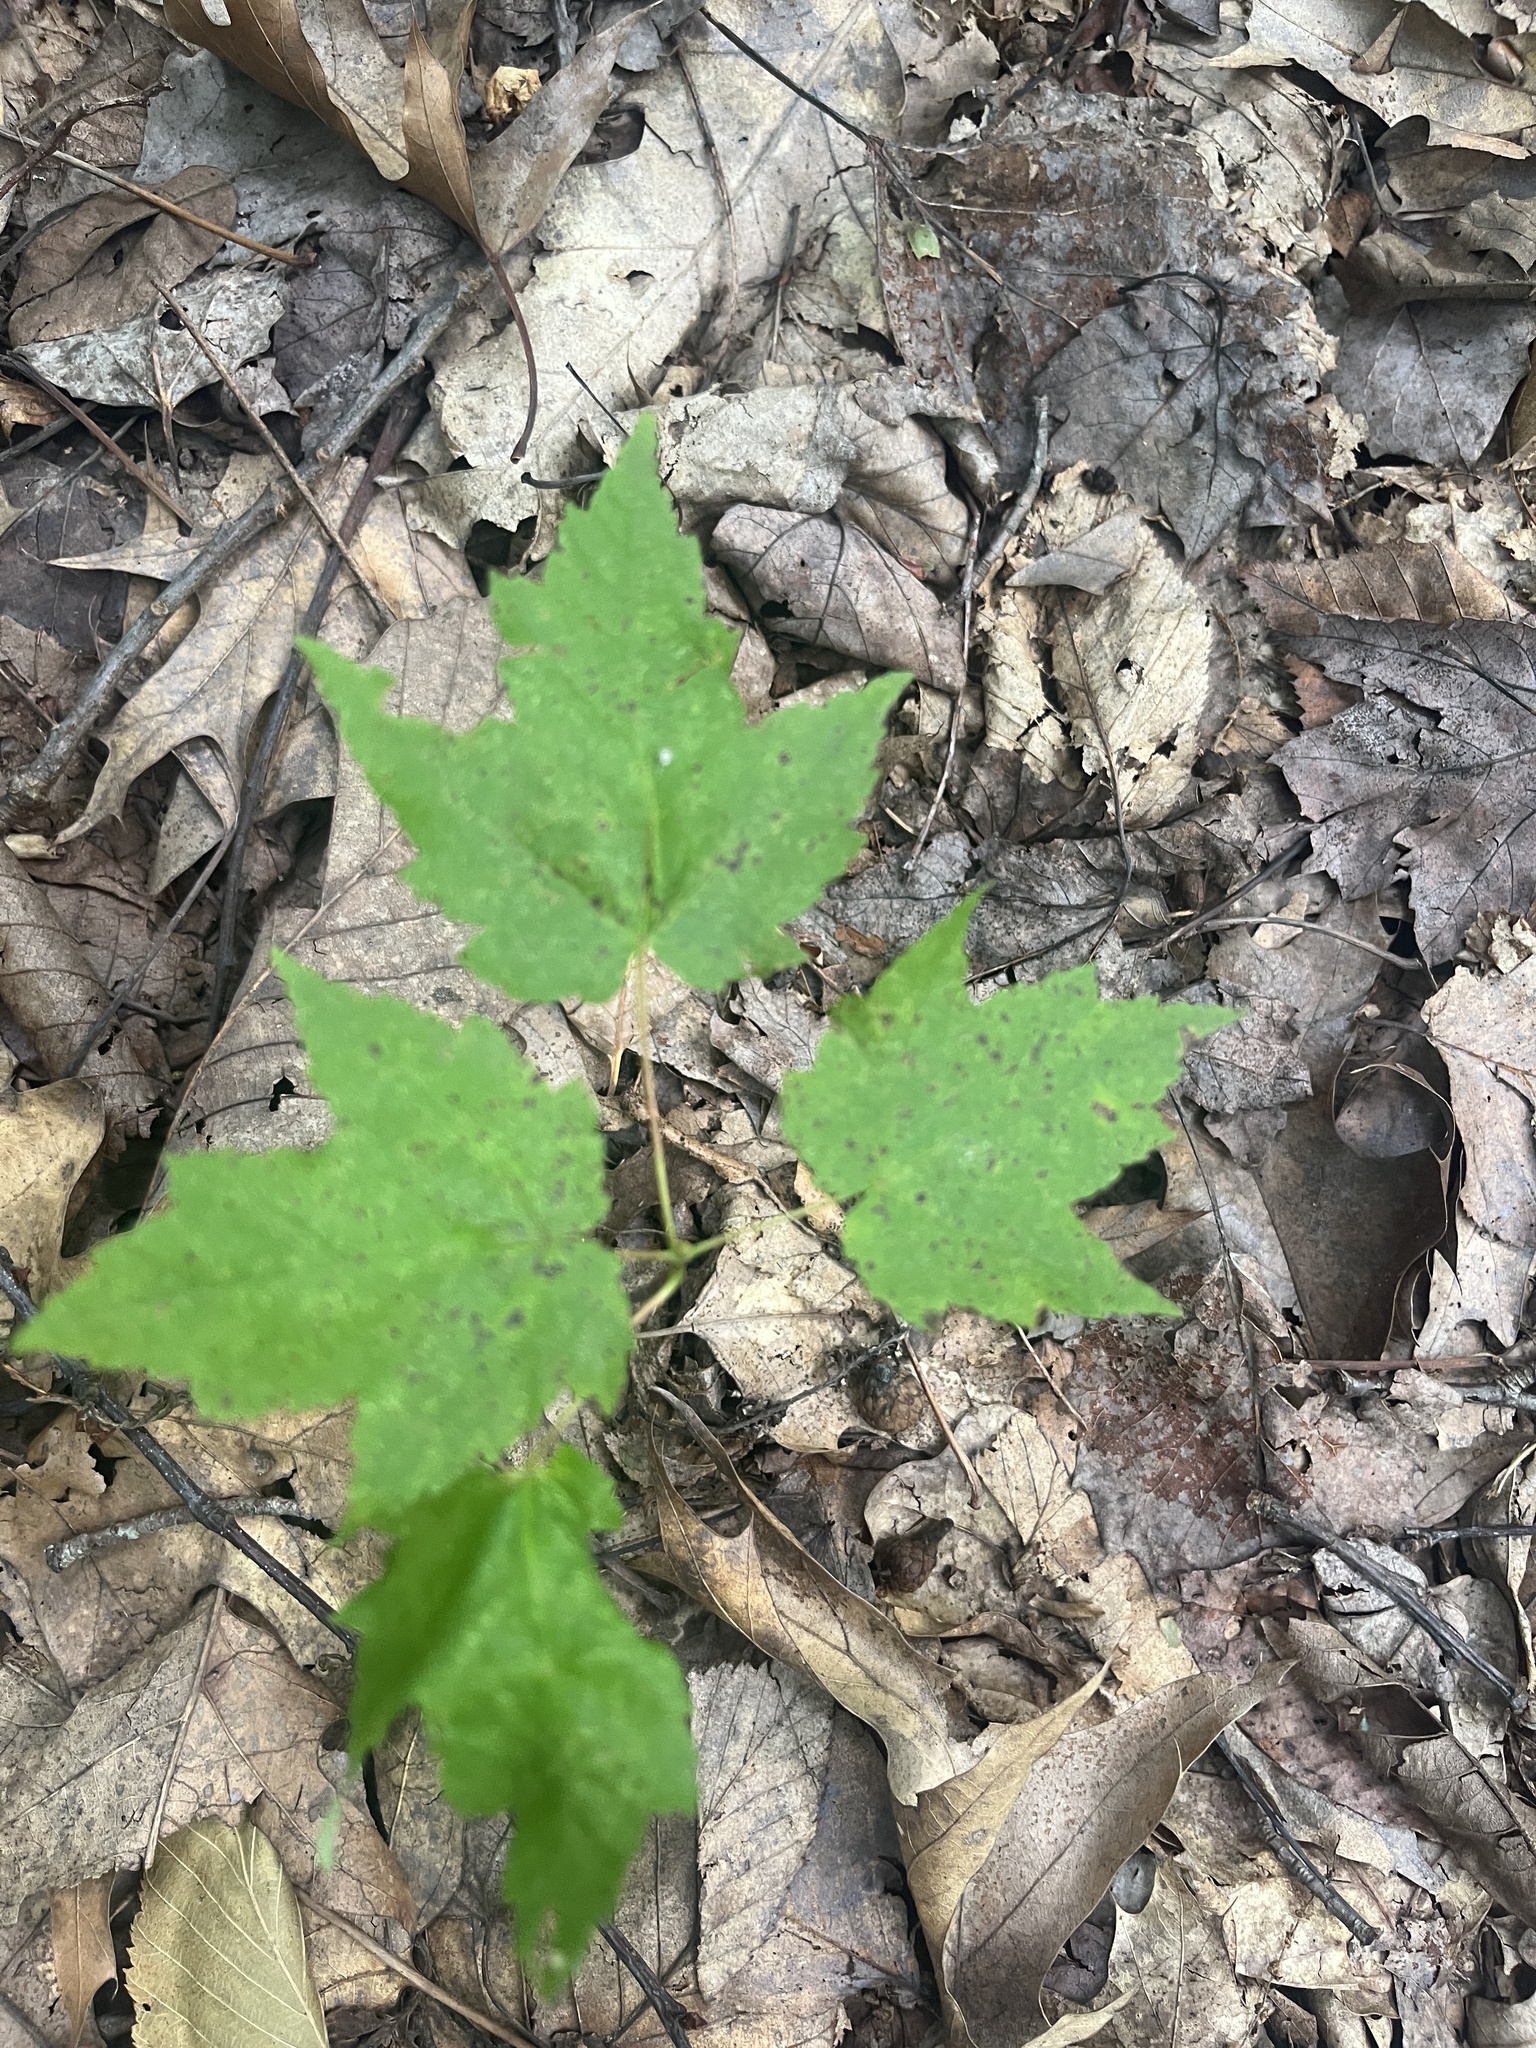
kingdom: Plantae
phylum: Tracheophyta
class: Magnoliopsida
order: Sapindales
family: Sapindaceae
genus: Acer
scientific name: Acer rubrum
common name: Red maple
